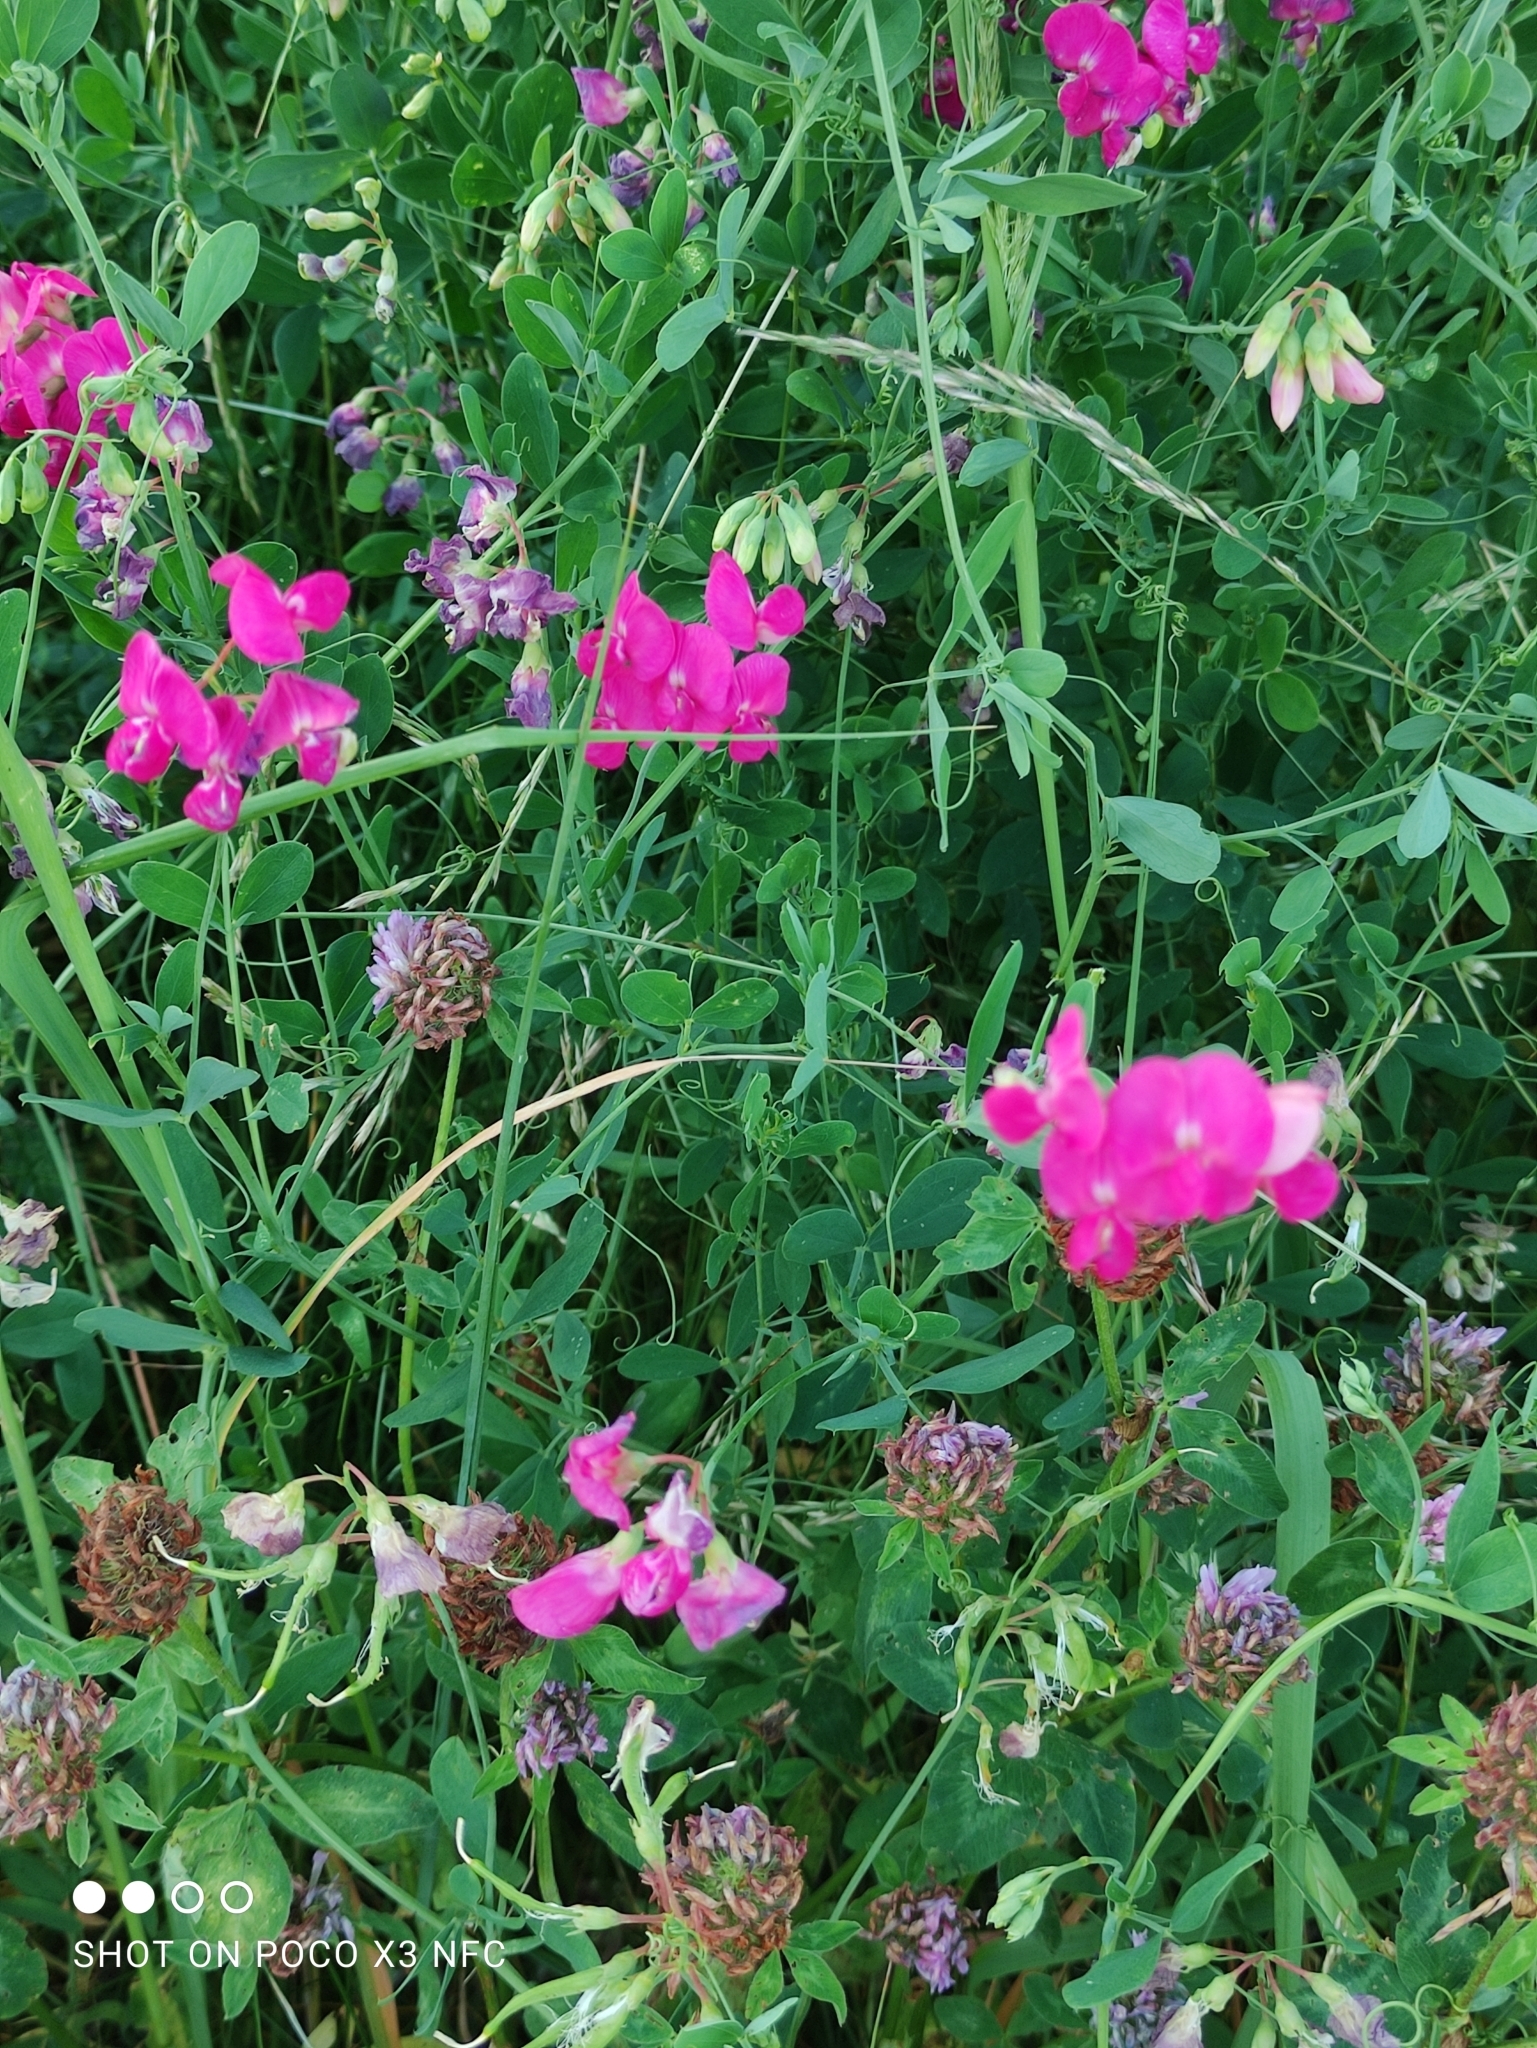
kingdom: Plantae
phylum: Tracheophyta
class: Magnoliopsida
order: Fabales
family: Fabaceae
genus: Lathyrus
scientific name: Lathyrus tuberosus
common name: Tuberous pea
